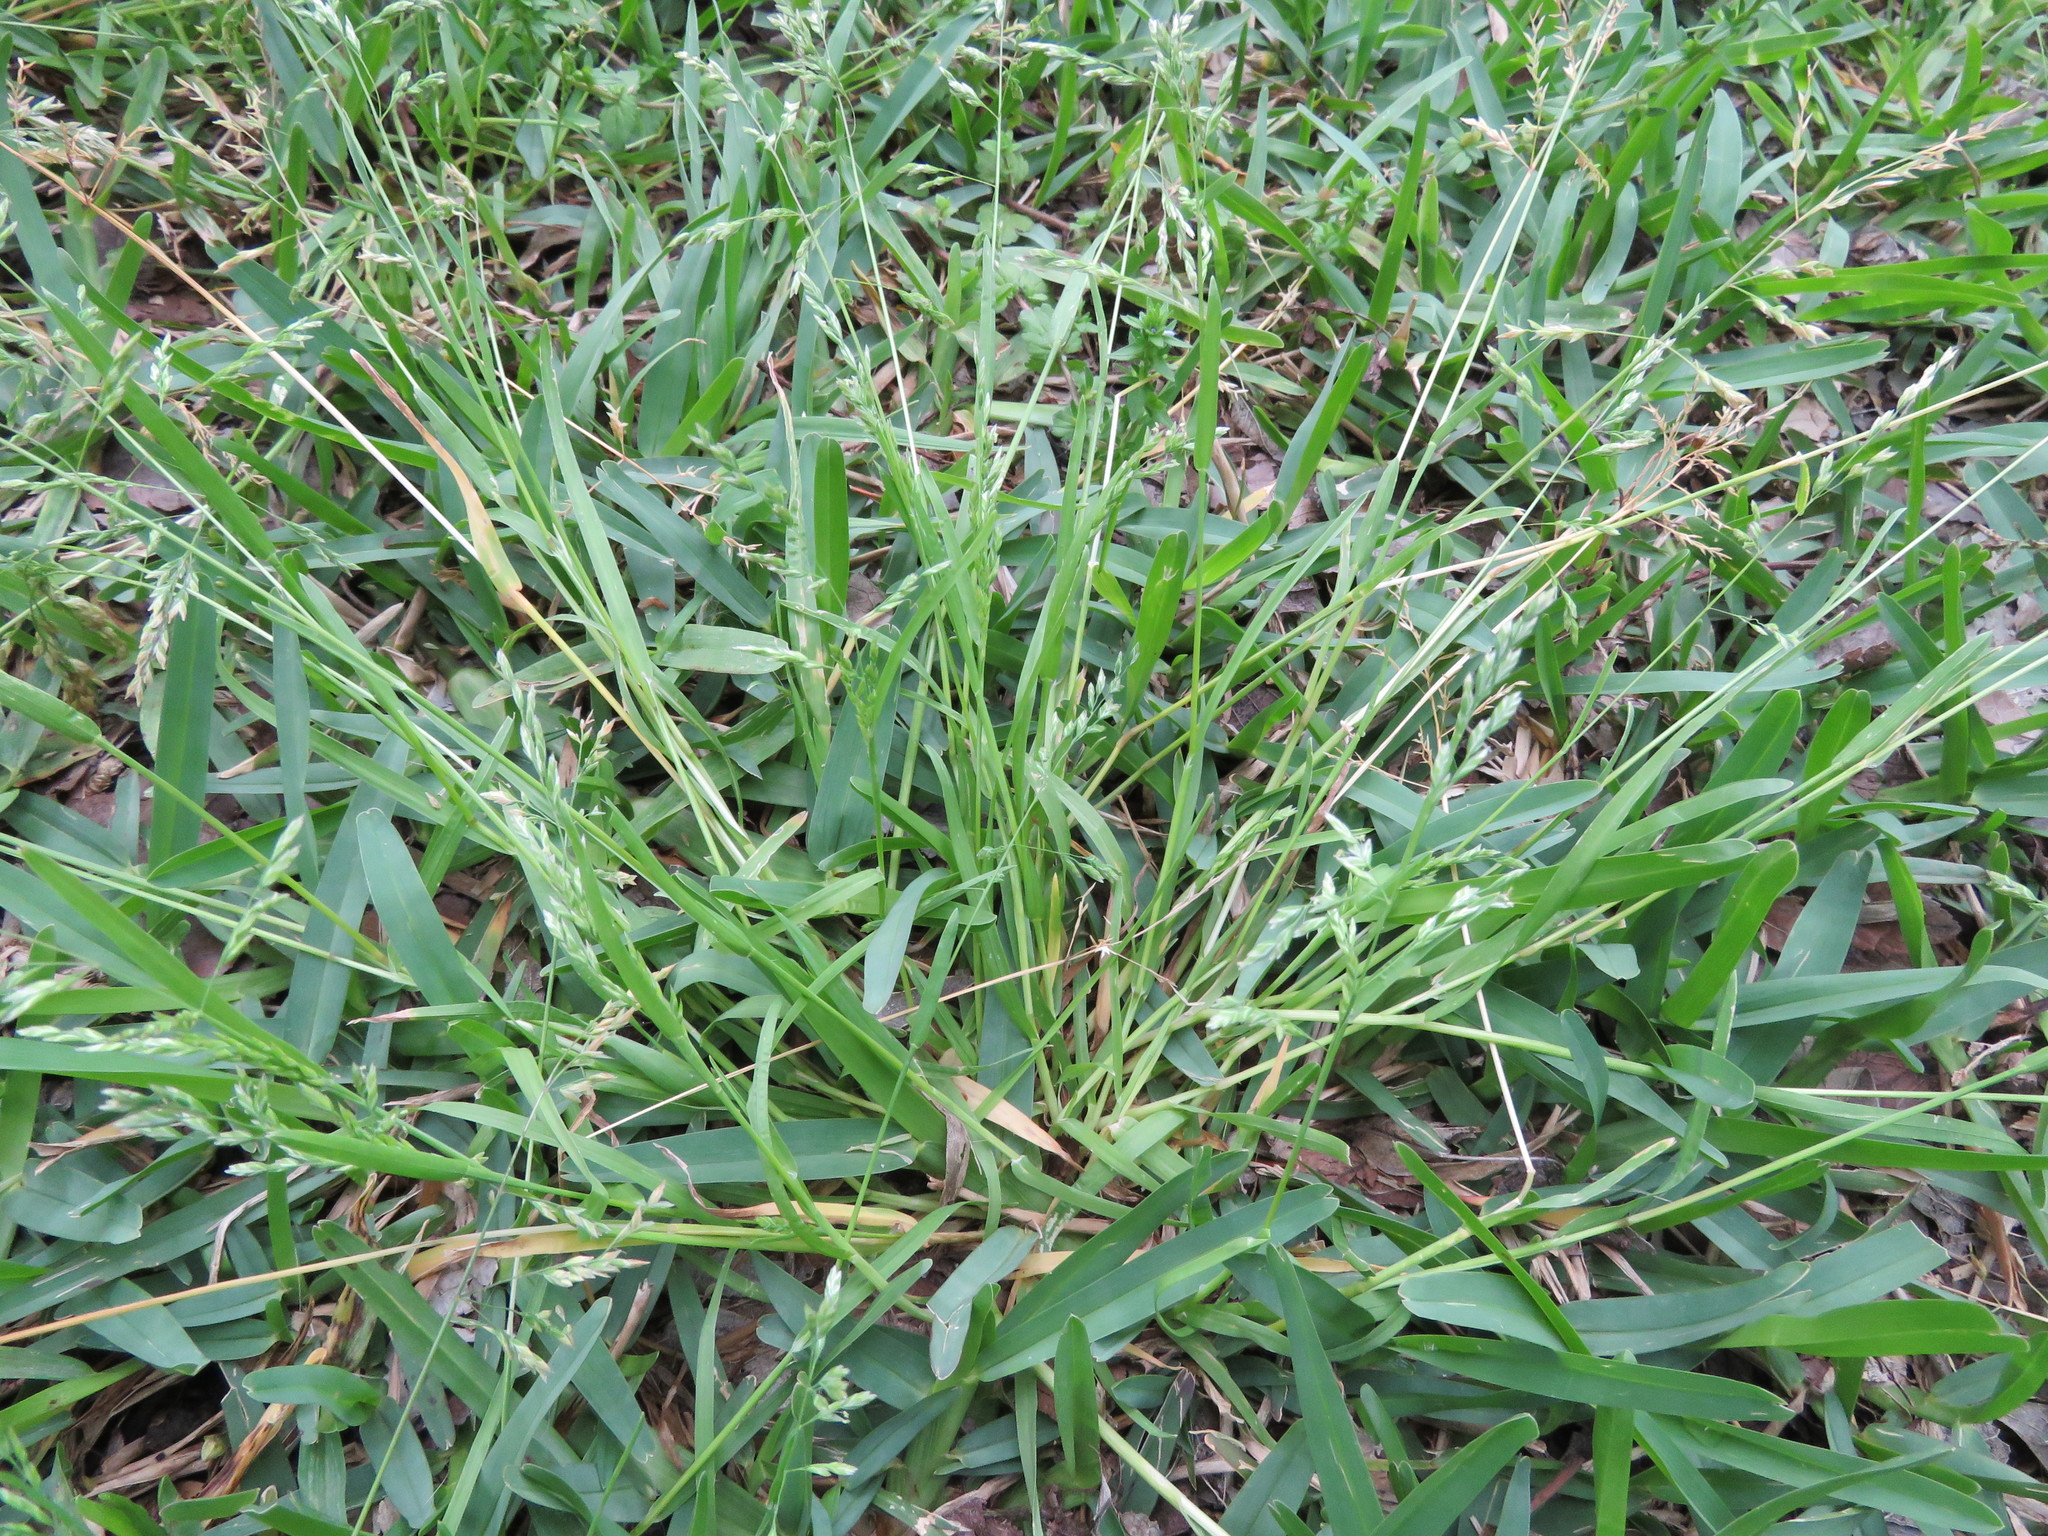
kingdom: Plantae
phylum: Tracheophyta
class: Liliopsida
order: Poales
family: Poaceae
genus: Poa
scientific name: Poa annua
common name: Annual bluegrass
